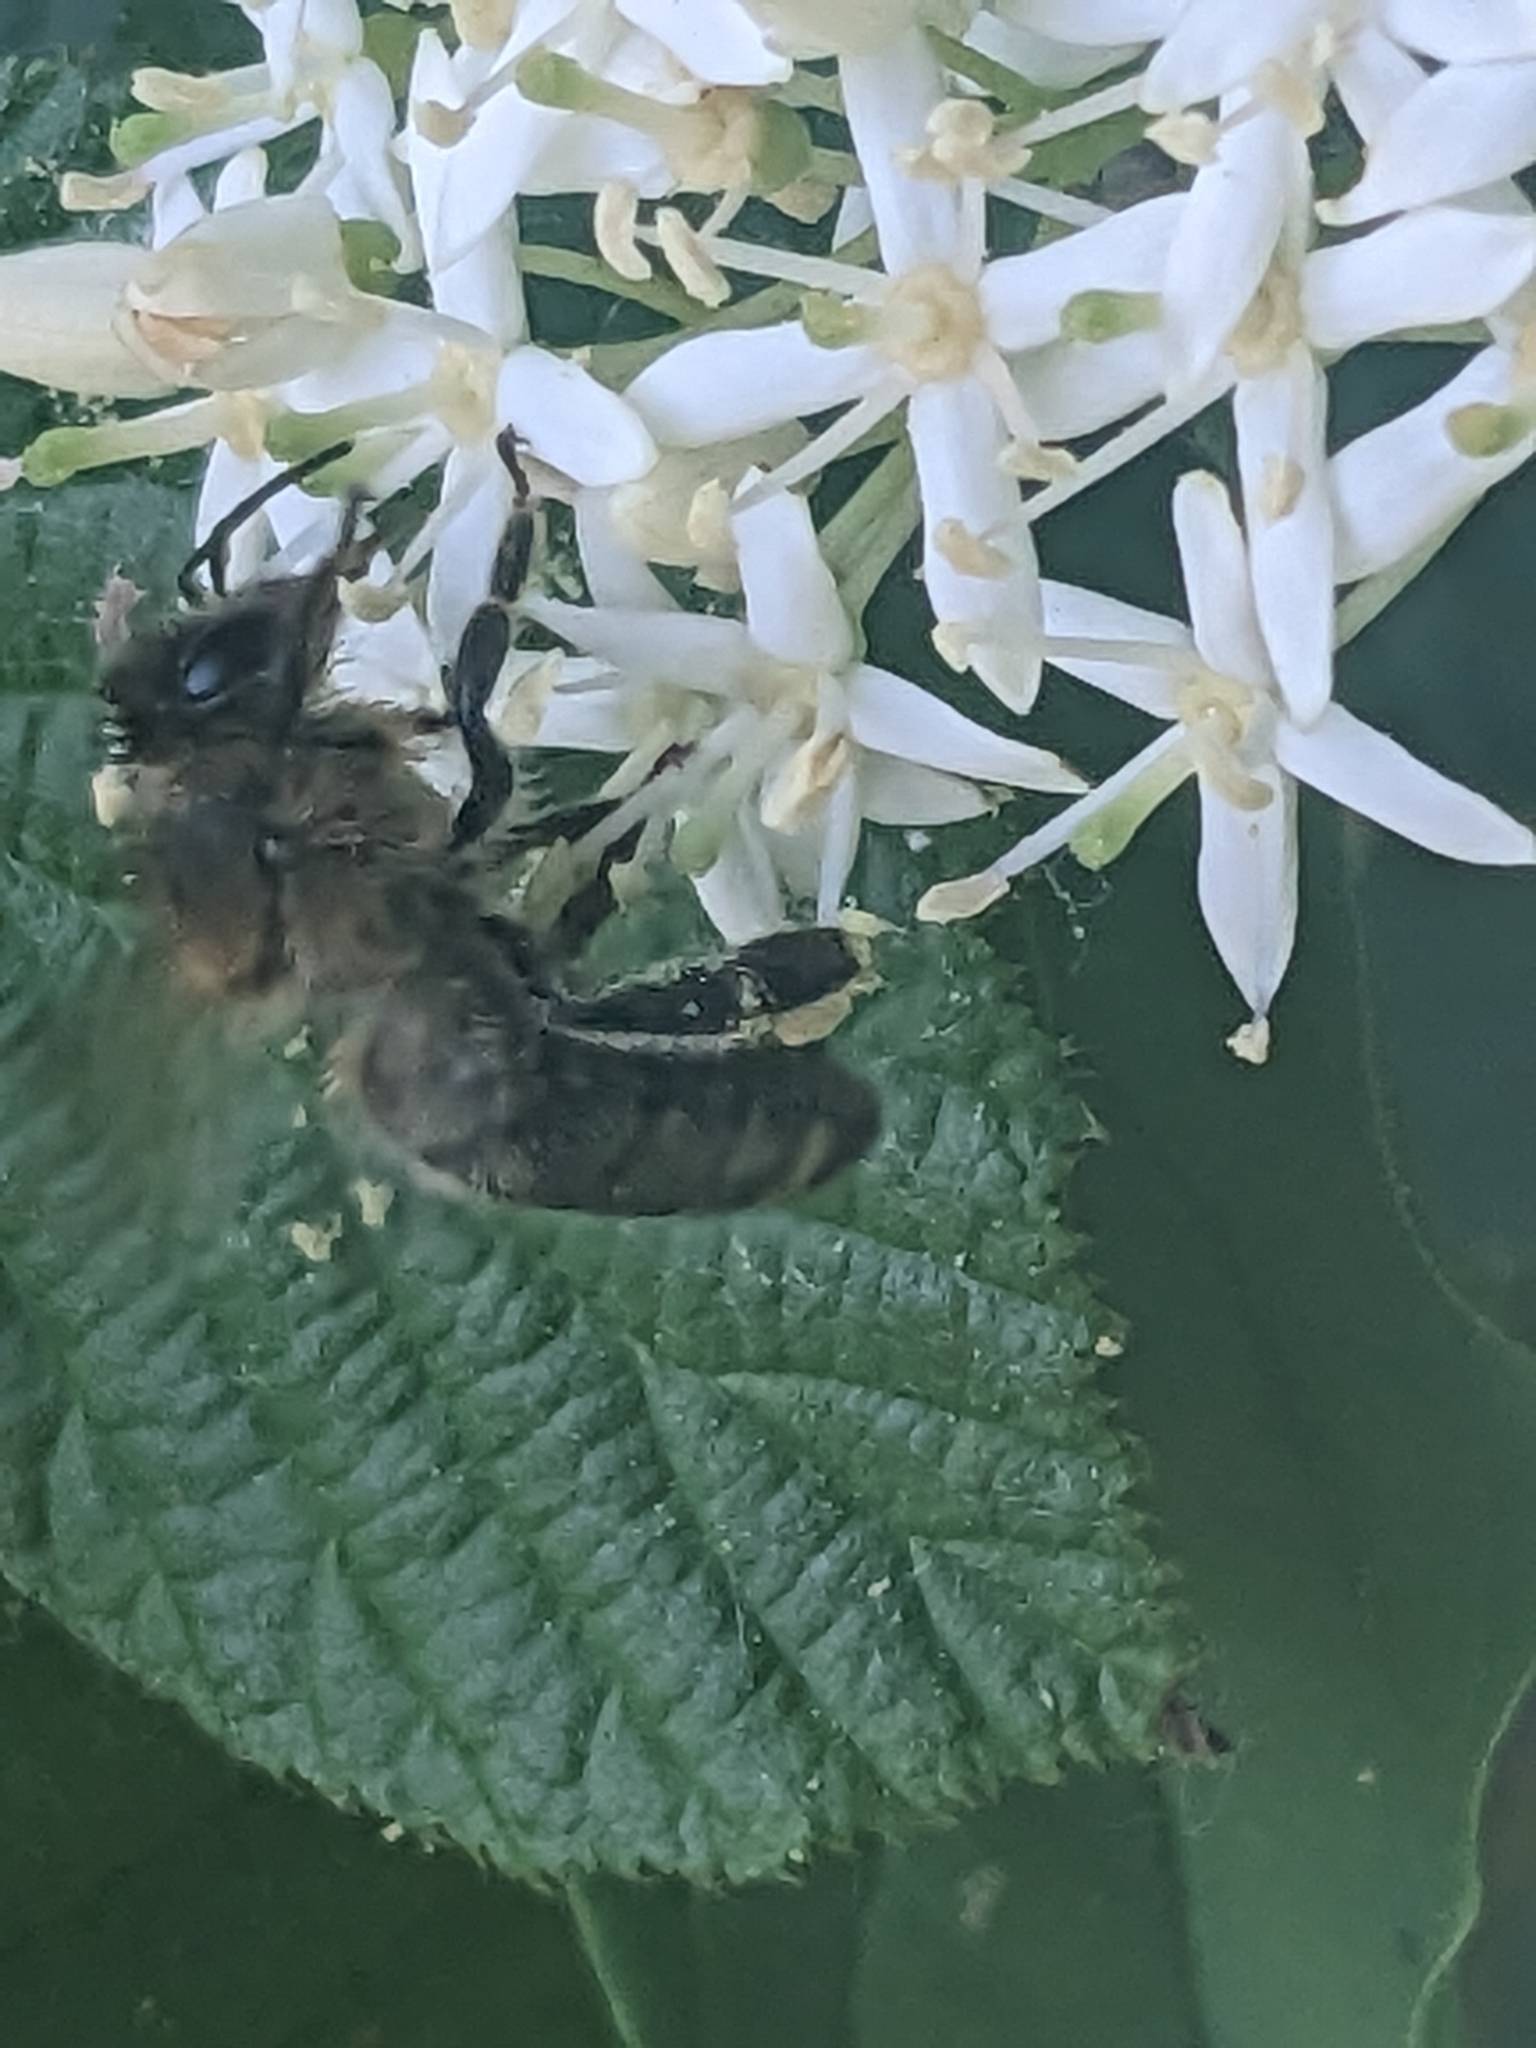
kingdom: Animalia
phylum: Arthropoda
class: Insecta
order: Hymenoptera
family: Apidae
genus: Apis
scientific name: Apis mellifera
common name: Honey bee
